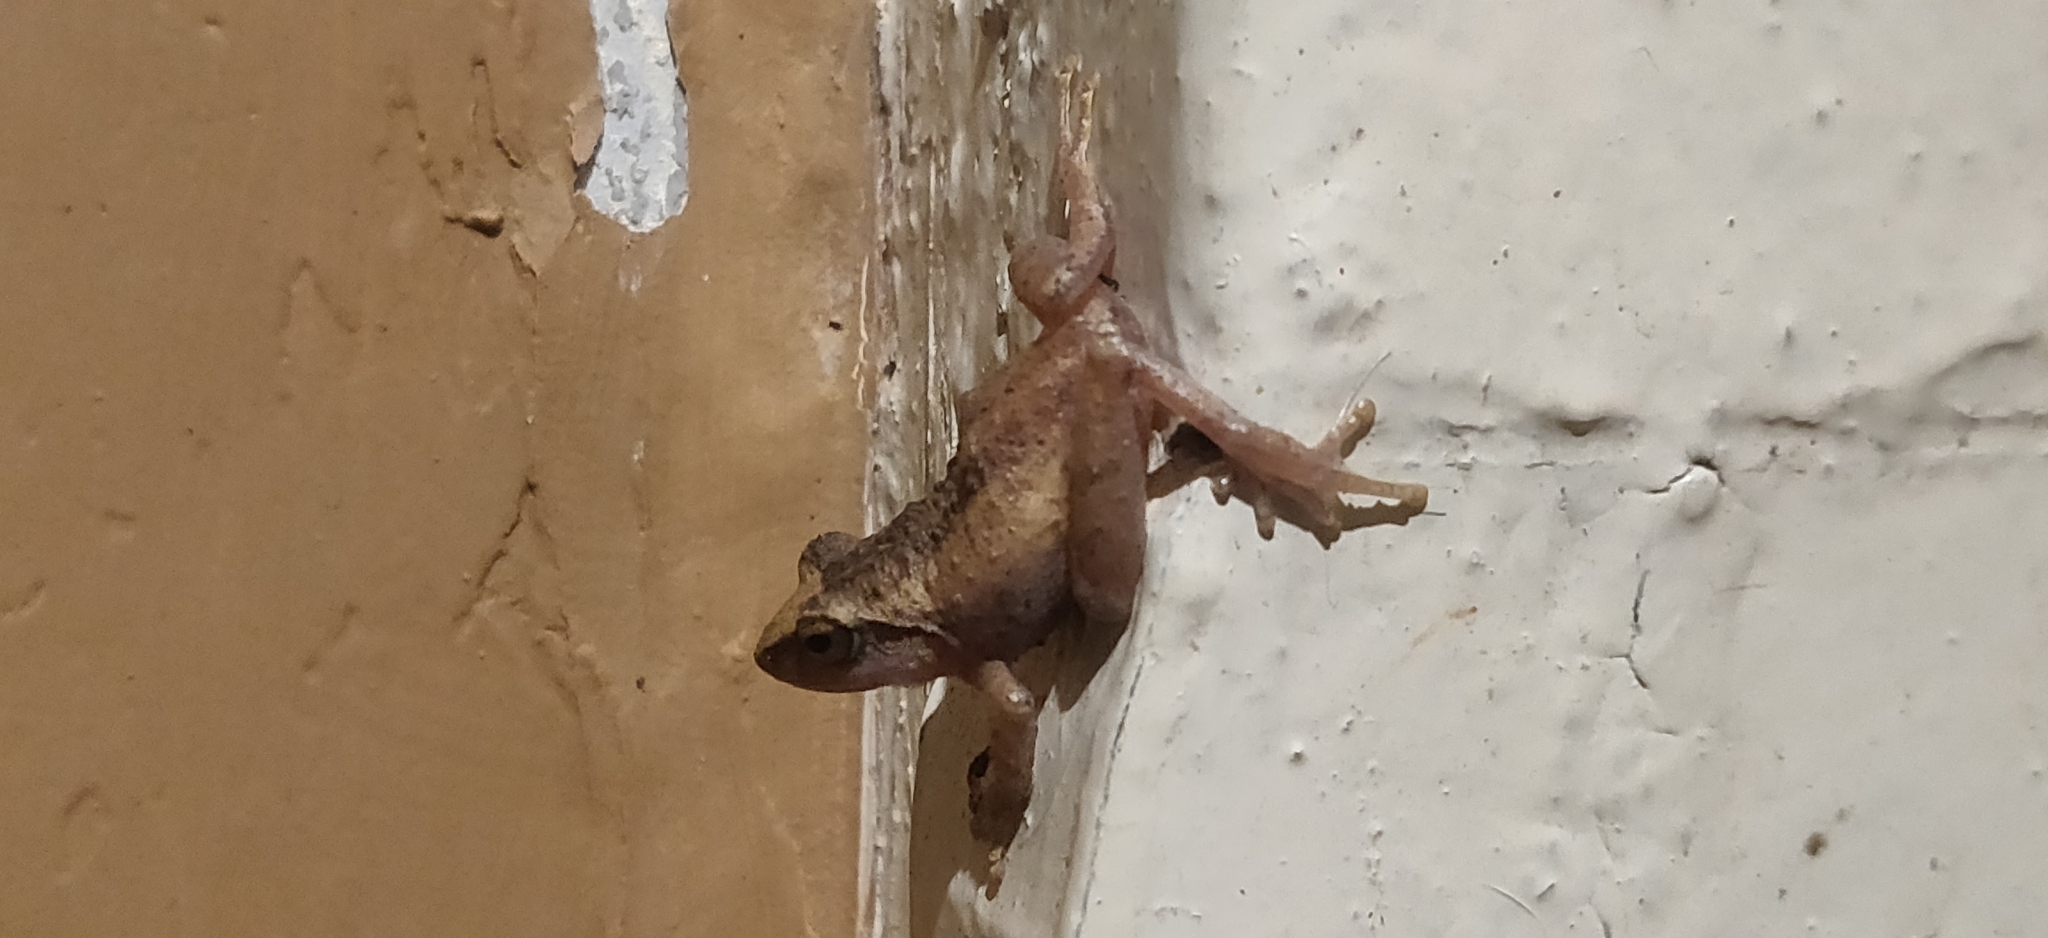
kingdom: Animalia
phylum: Chordata
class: Amphibia
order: Anura
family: Rhacophoridae
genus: Pseudophilautus
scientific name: Pseudophilautus wynaadensis
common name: Dark-eared bush frog
